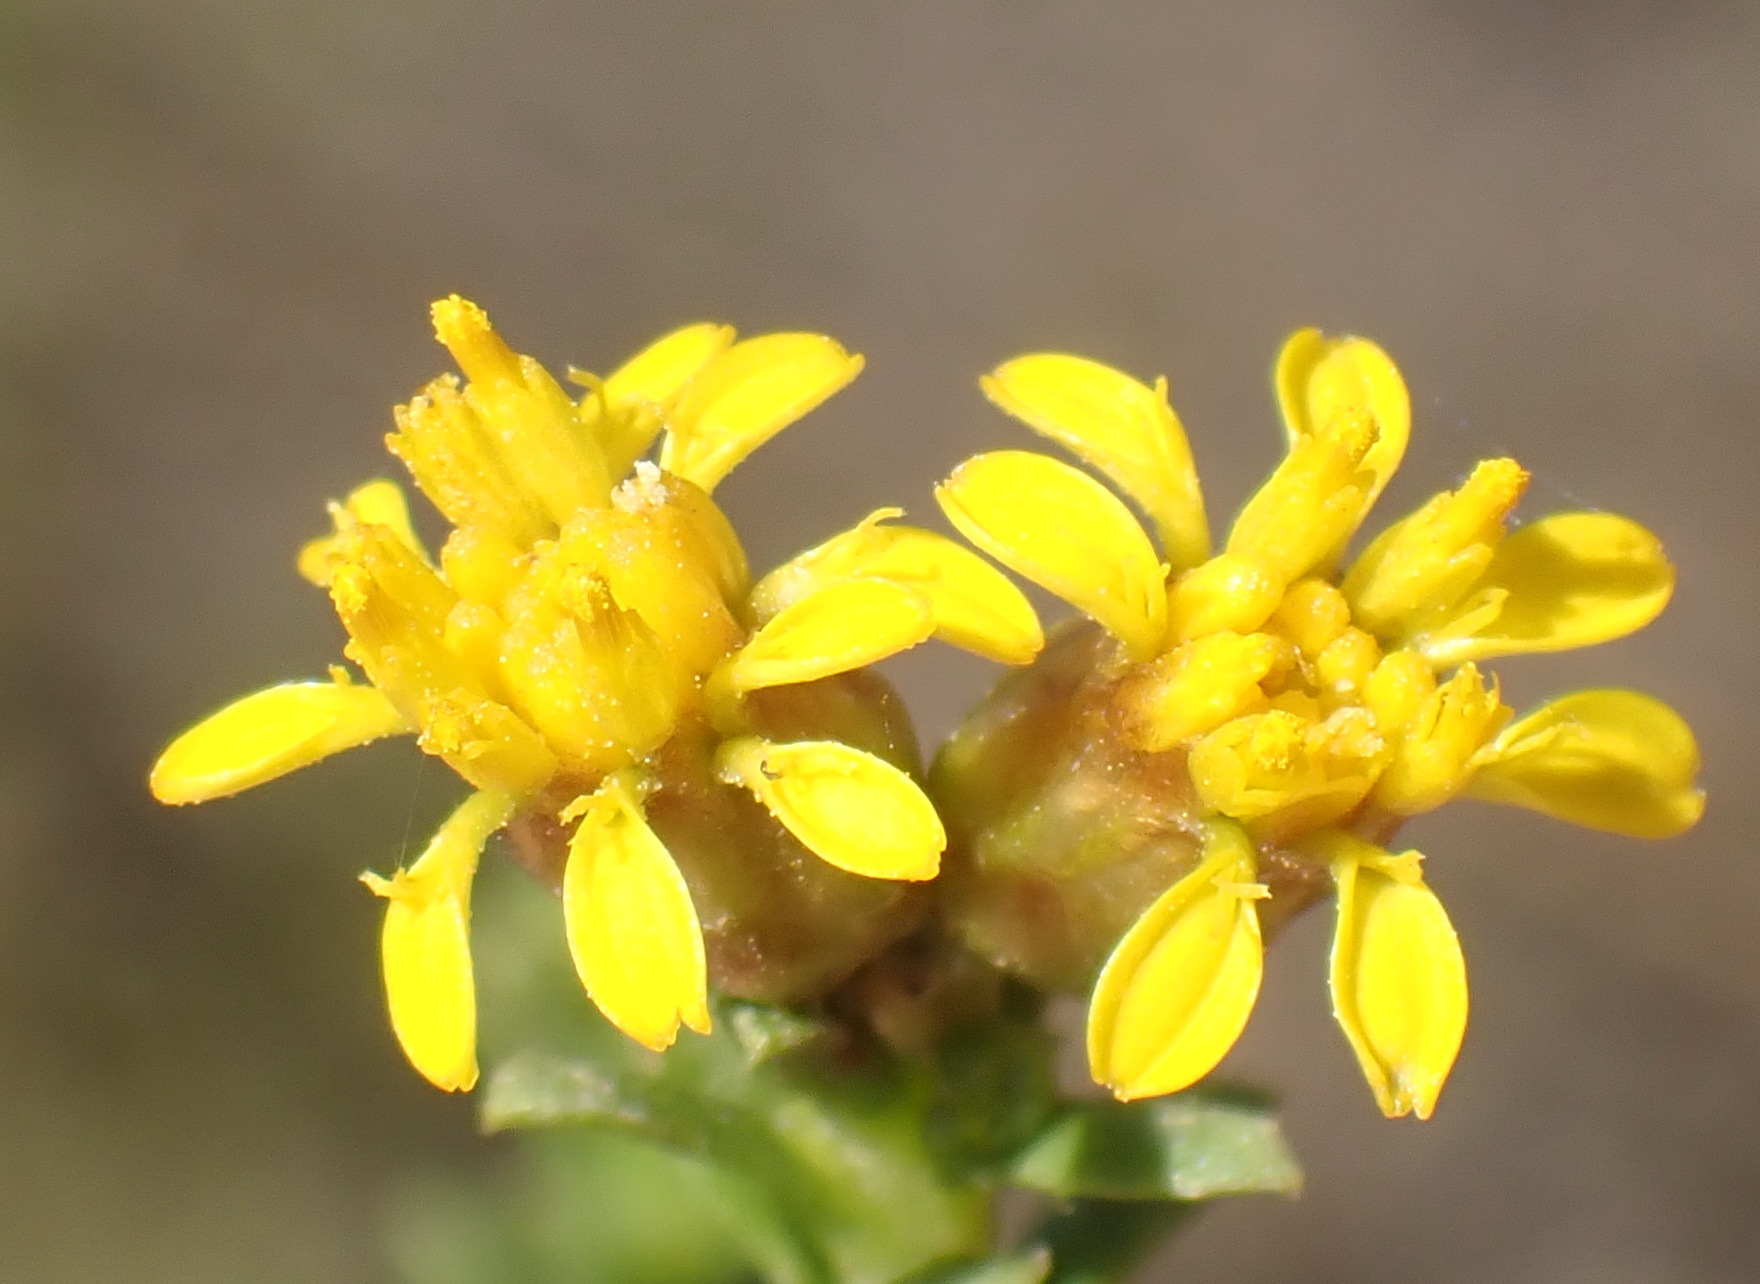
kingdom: Plantae
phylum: Tracheophyta
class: Magnoliopsida
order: Asterales
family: Asteraceae
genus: Oedera
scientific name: Oedera genistifolia
